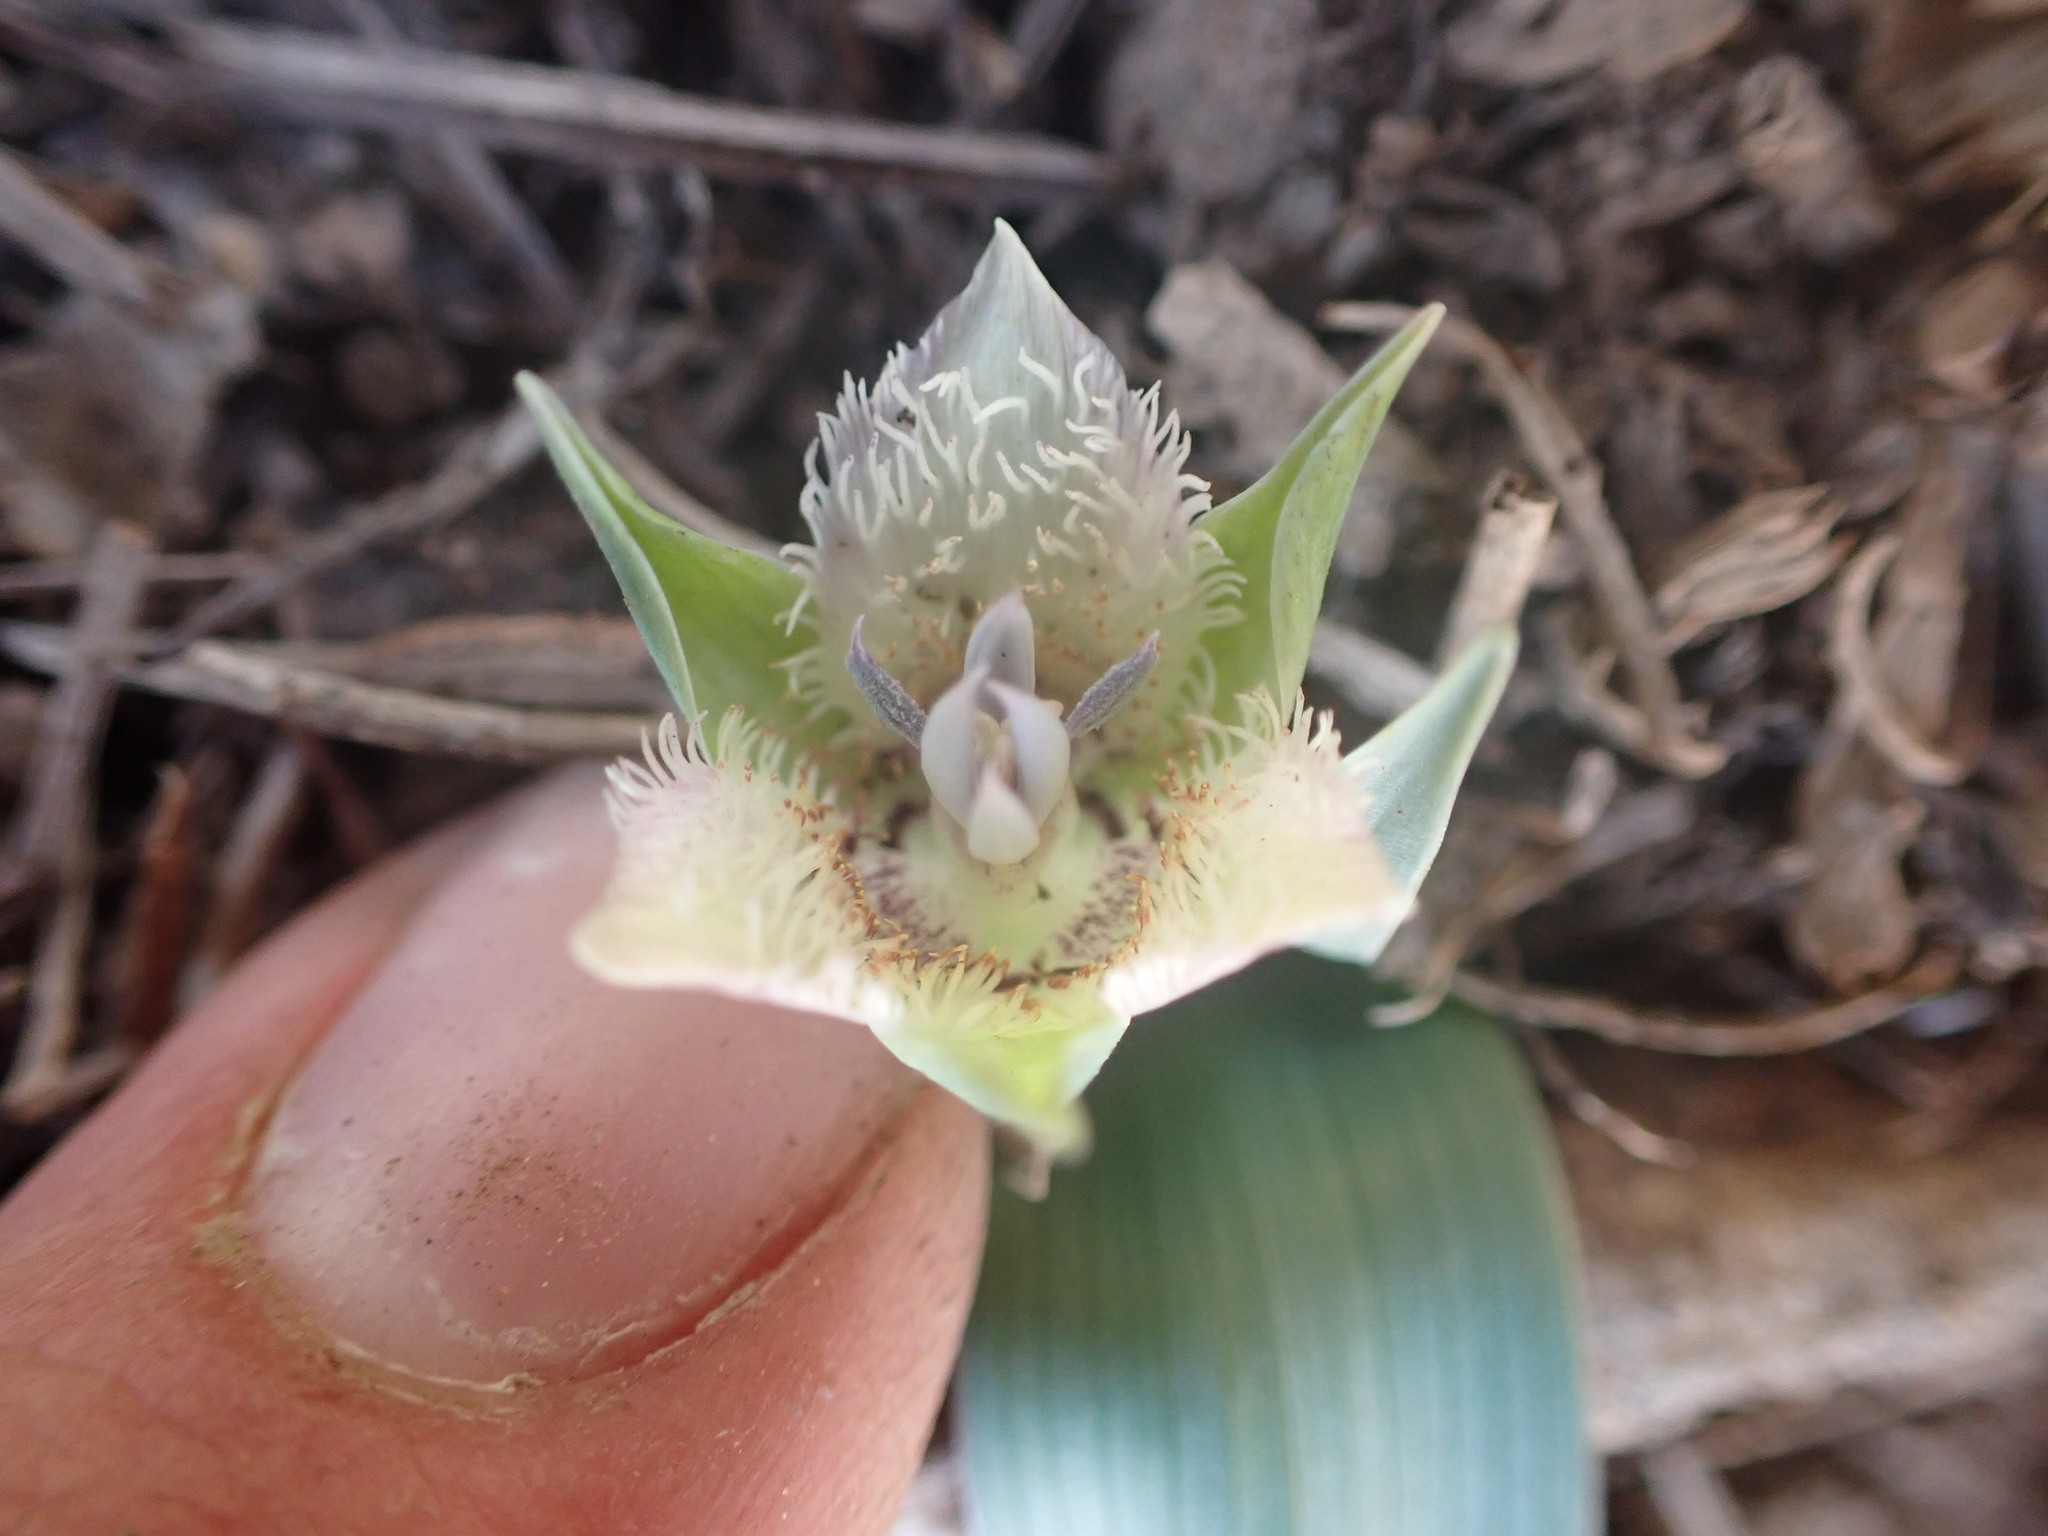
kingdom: Plantae
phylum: Tracheophyta
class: Liliopsida
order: Liliales
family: Liliaceae
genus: Calochortus
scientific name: Calochortus westonii
